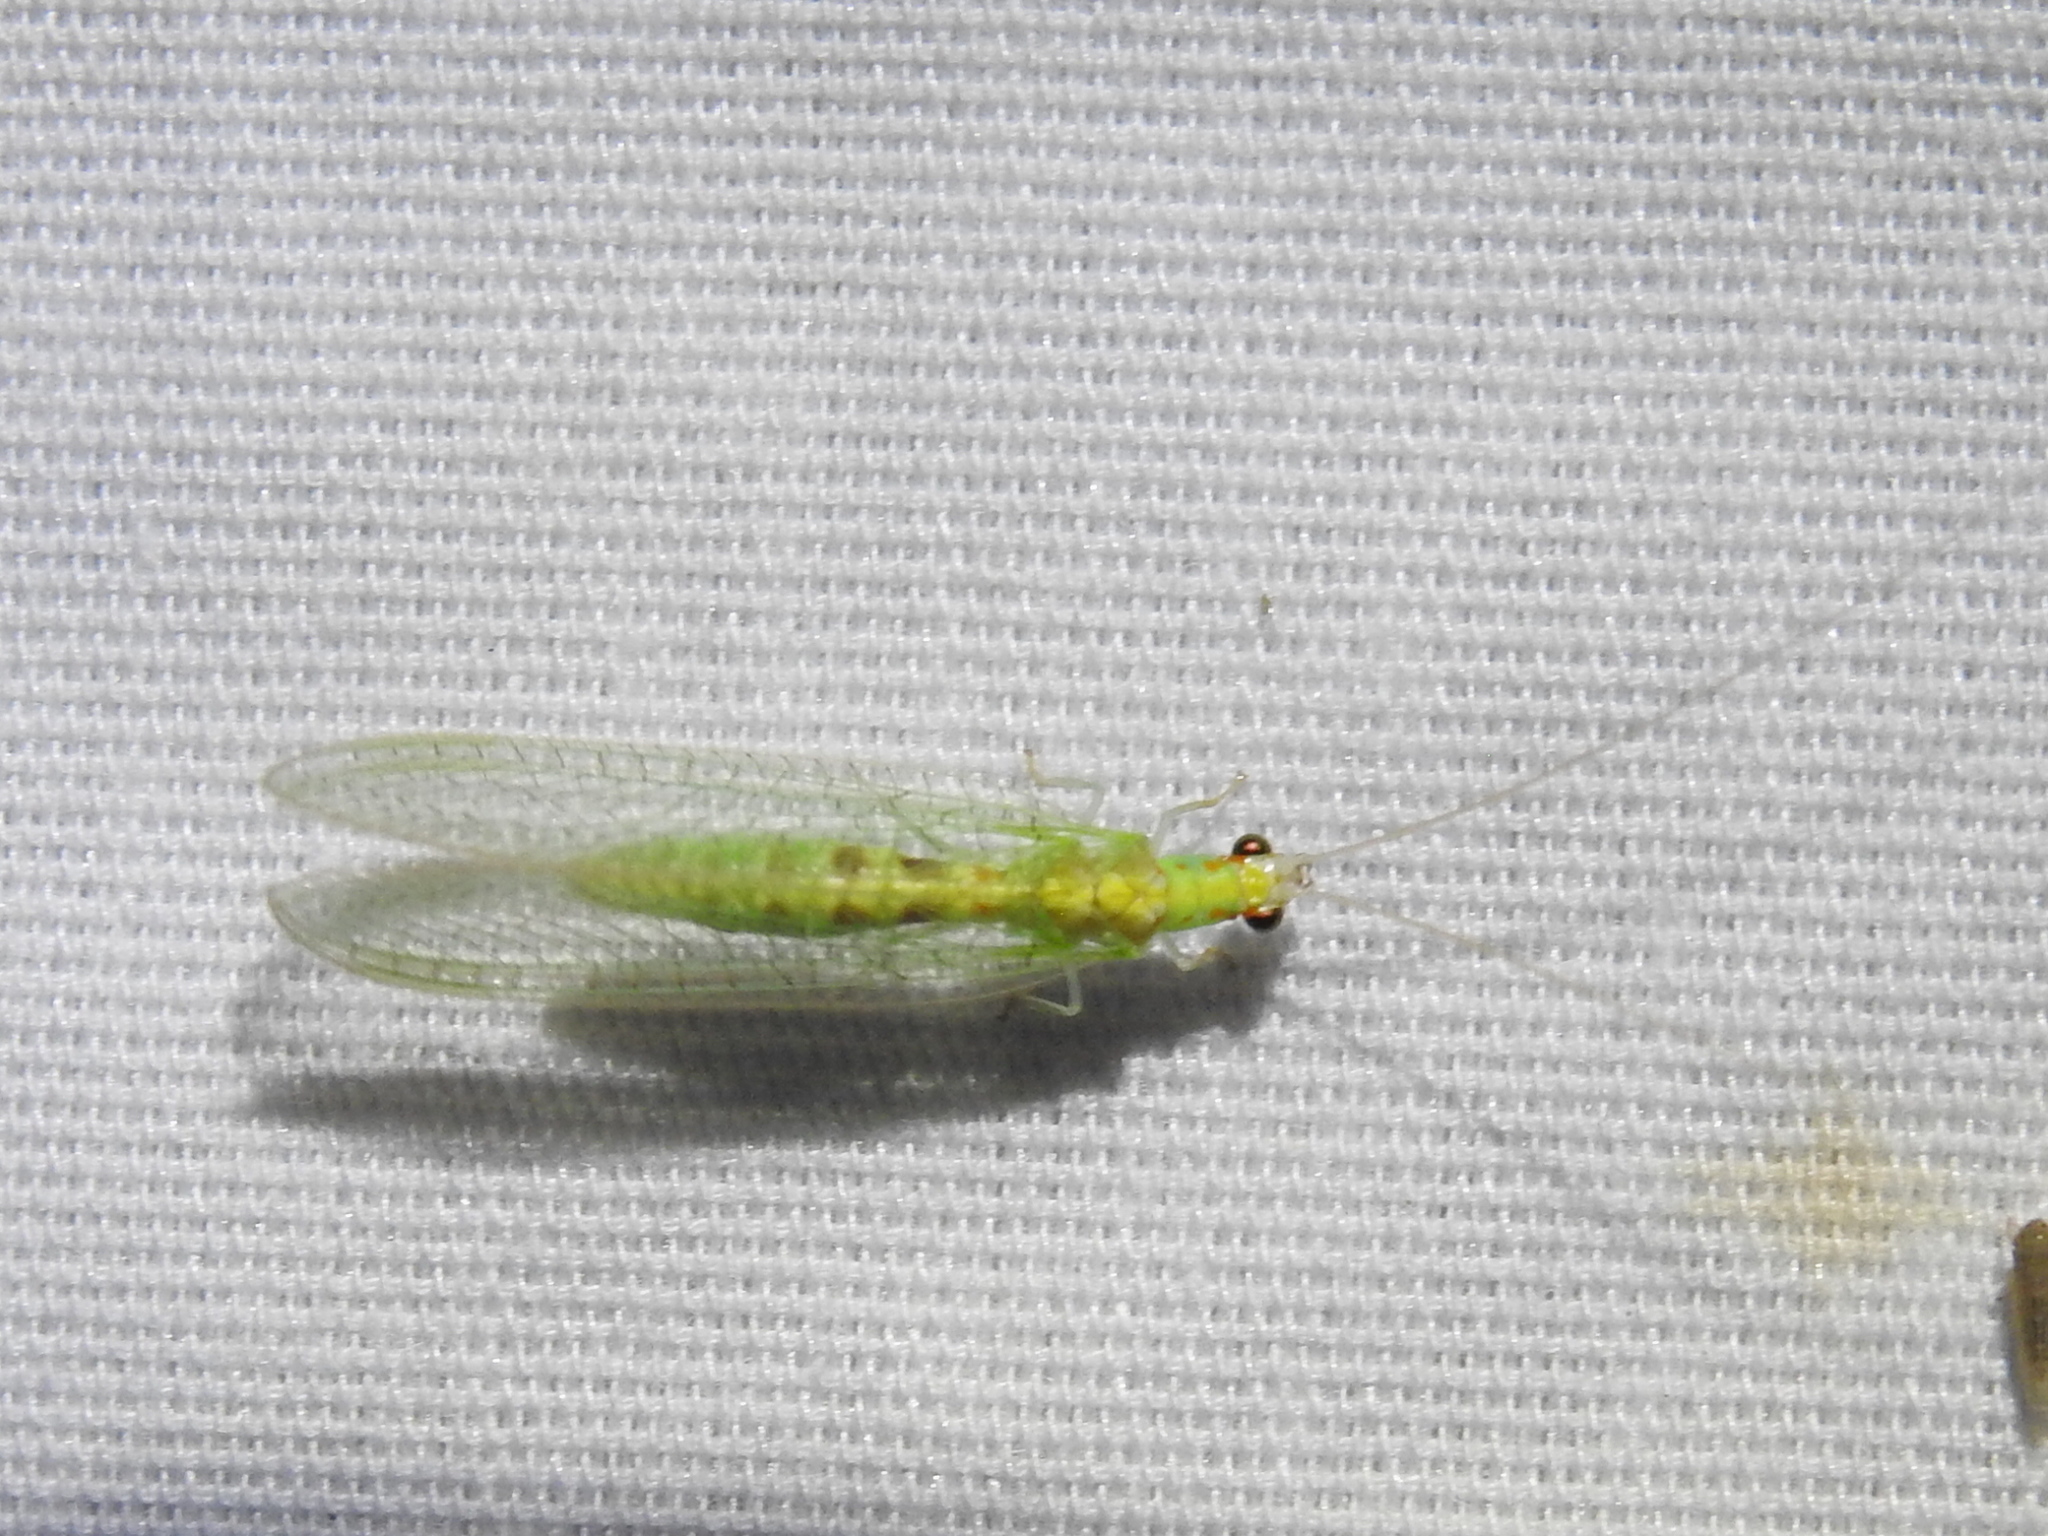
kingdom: Animalia
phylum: Arthropoda
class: Insecta
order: Neuroptera
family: Chrysopidae
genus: Chrysopa
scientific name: Chrysopa quadripunctata
